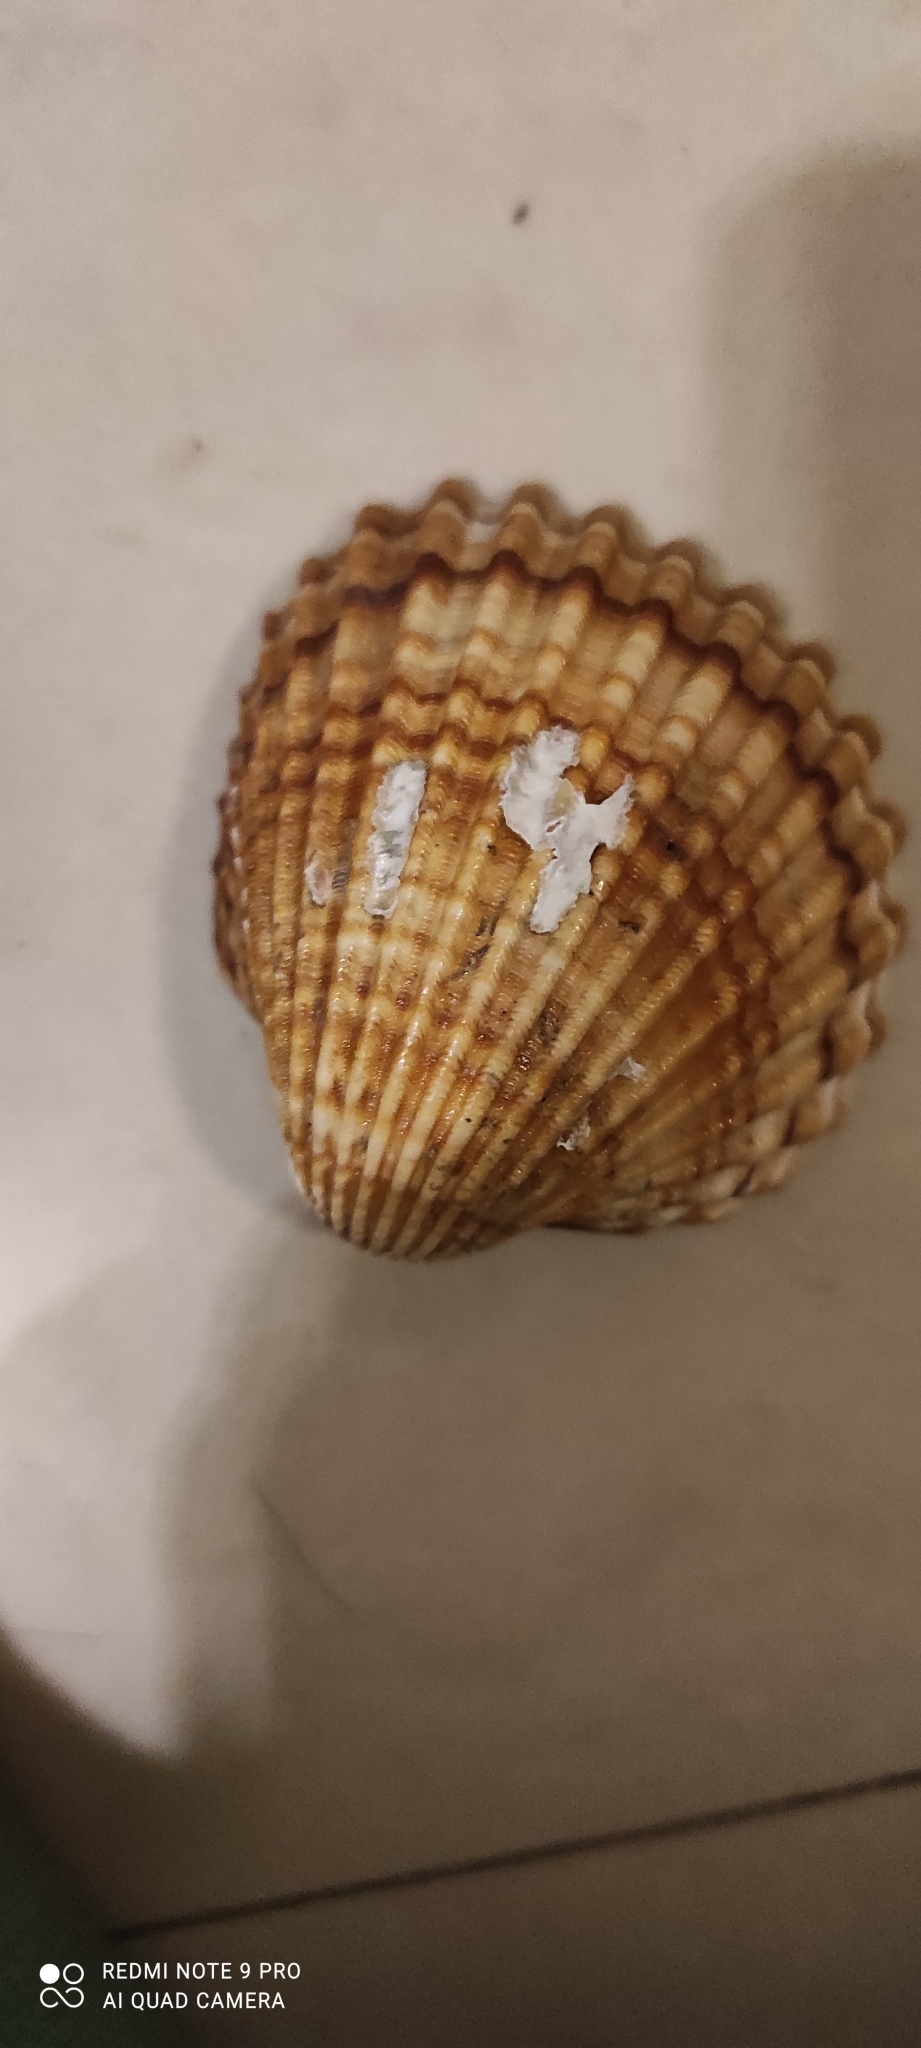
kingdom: Animalia
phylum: Mollusca
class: Bivalvia
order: Cardiida
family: Cardiidae
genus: Acanthocardia
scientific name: Acanthocardia tuberculata
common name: Rough cockle
